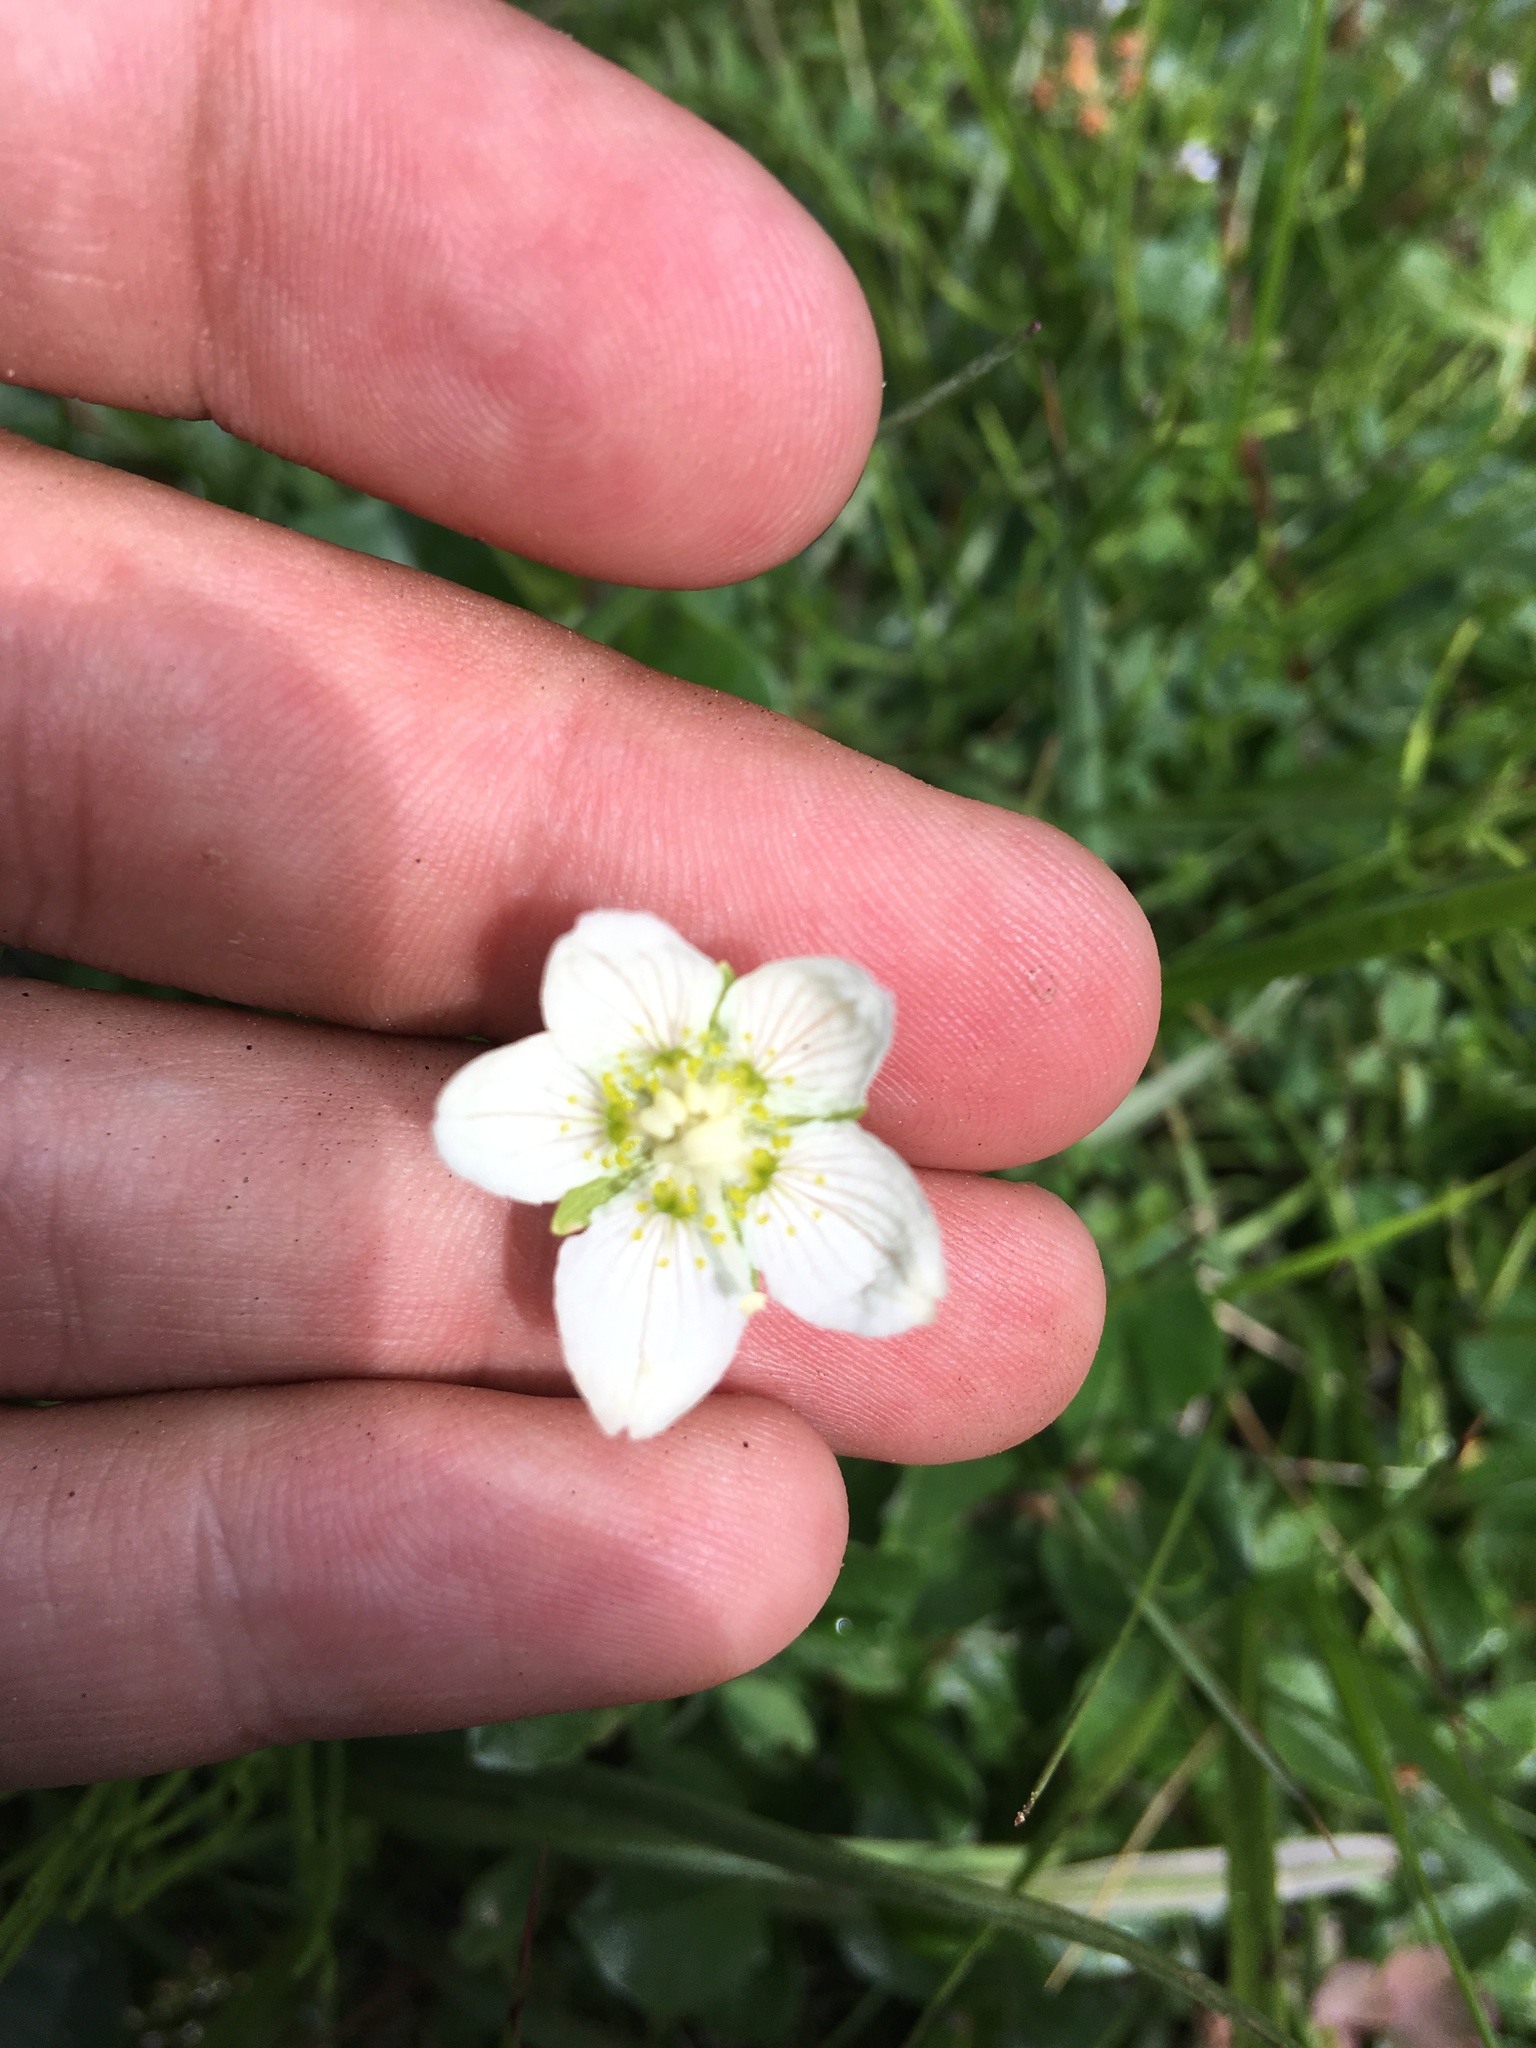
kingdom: Plantae
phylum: Tracheophyta
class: Magnoliopsida
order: Celastrales
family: Parnassiaceae
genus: Parnassia
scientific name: Parnassia palustris
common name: Grass-of-parnassus
